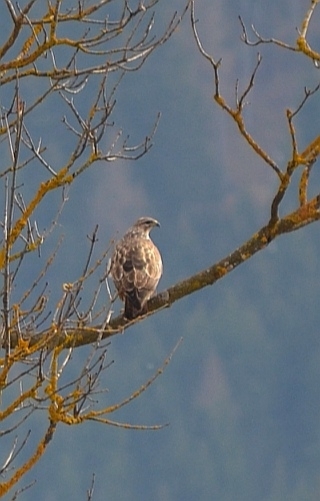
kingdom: Animalia
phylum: Chordata
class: Aves
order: Accipitriformes
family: Accipitridae
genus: Buteo
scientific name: Buteo buteo
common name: Common buzzard
